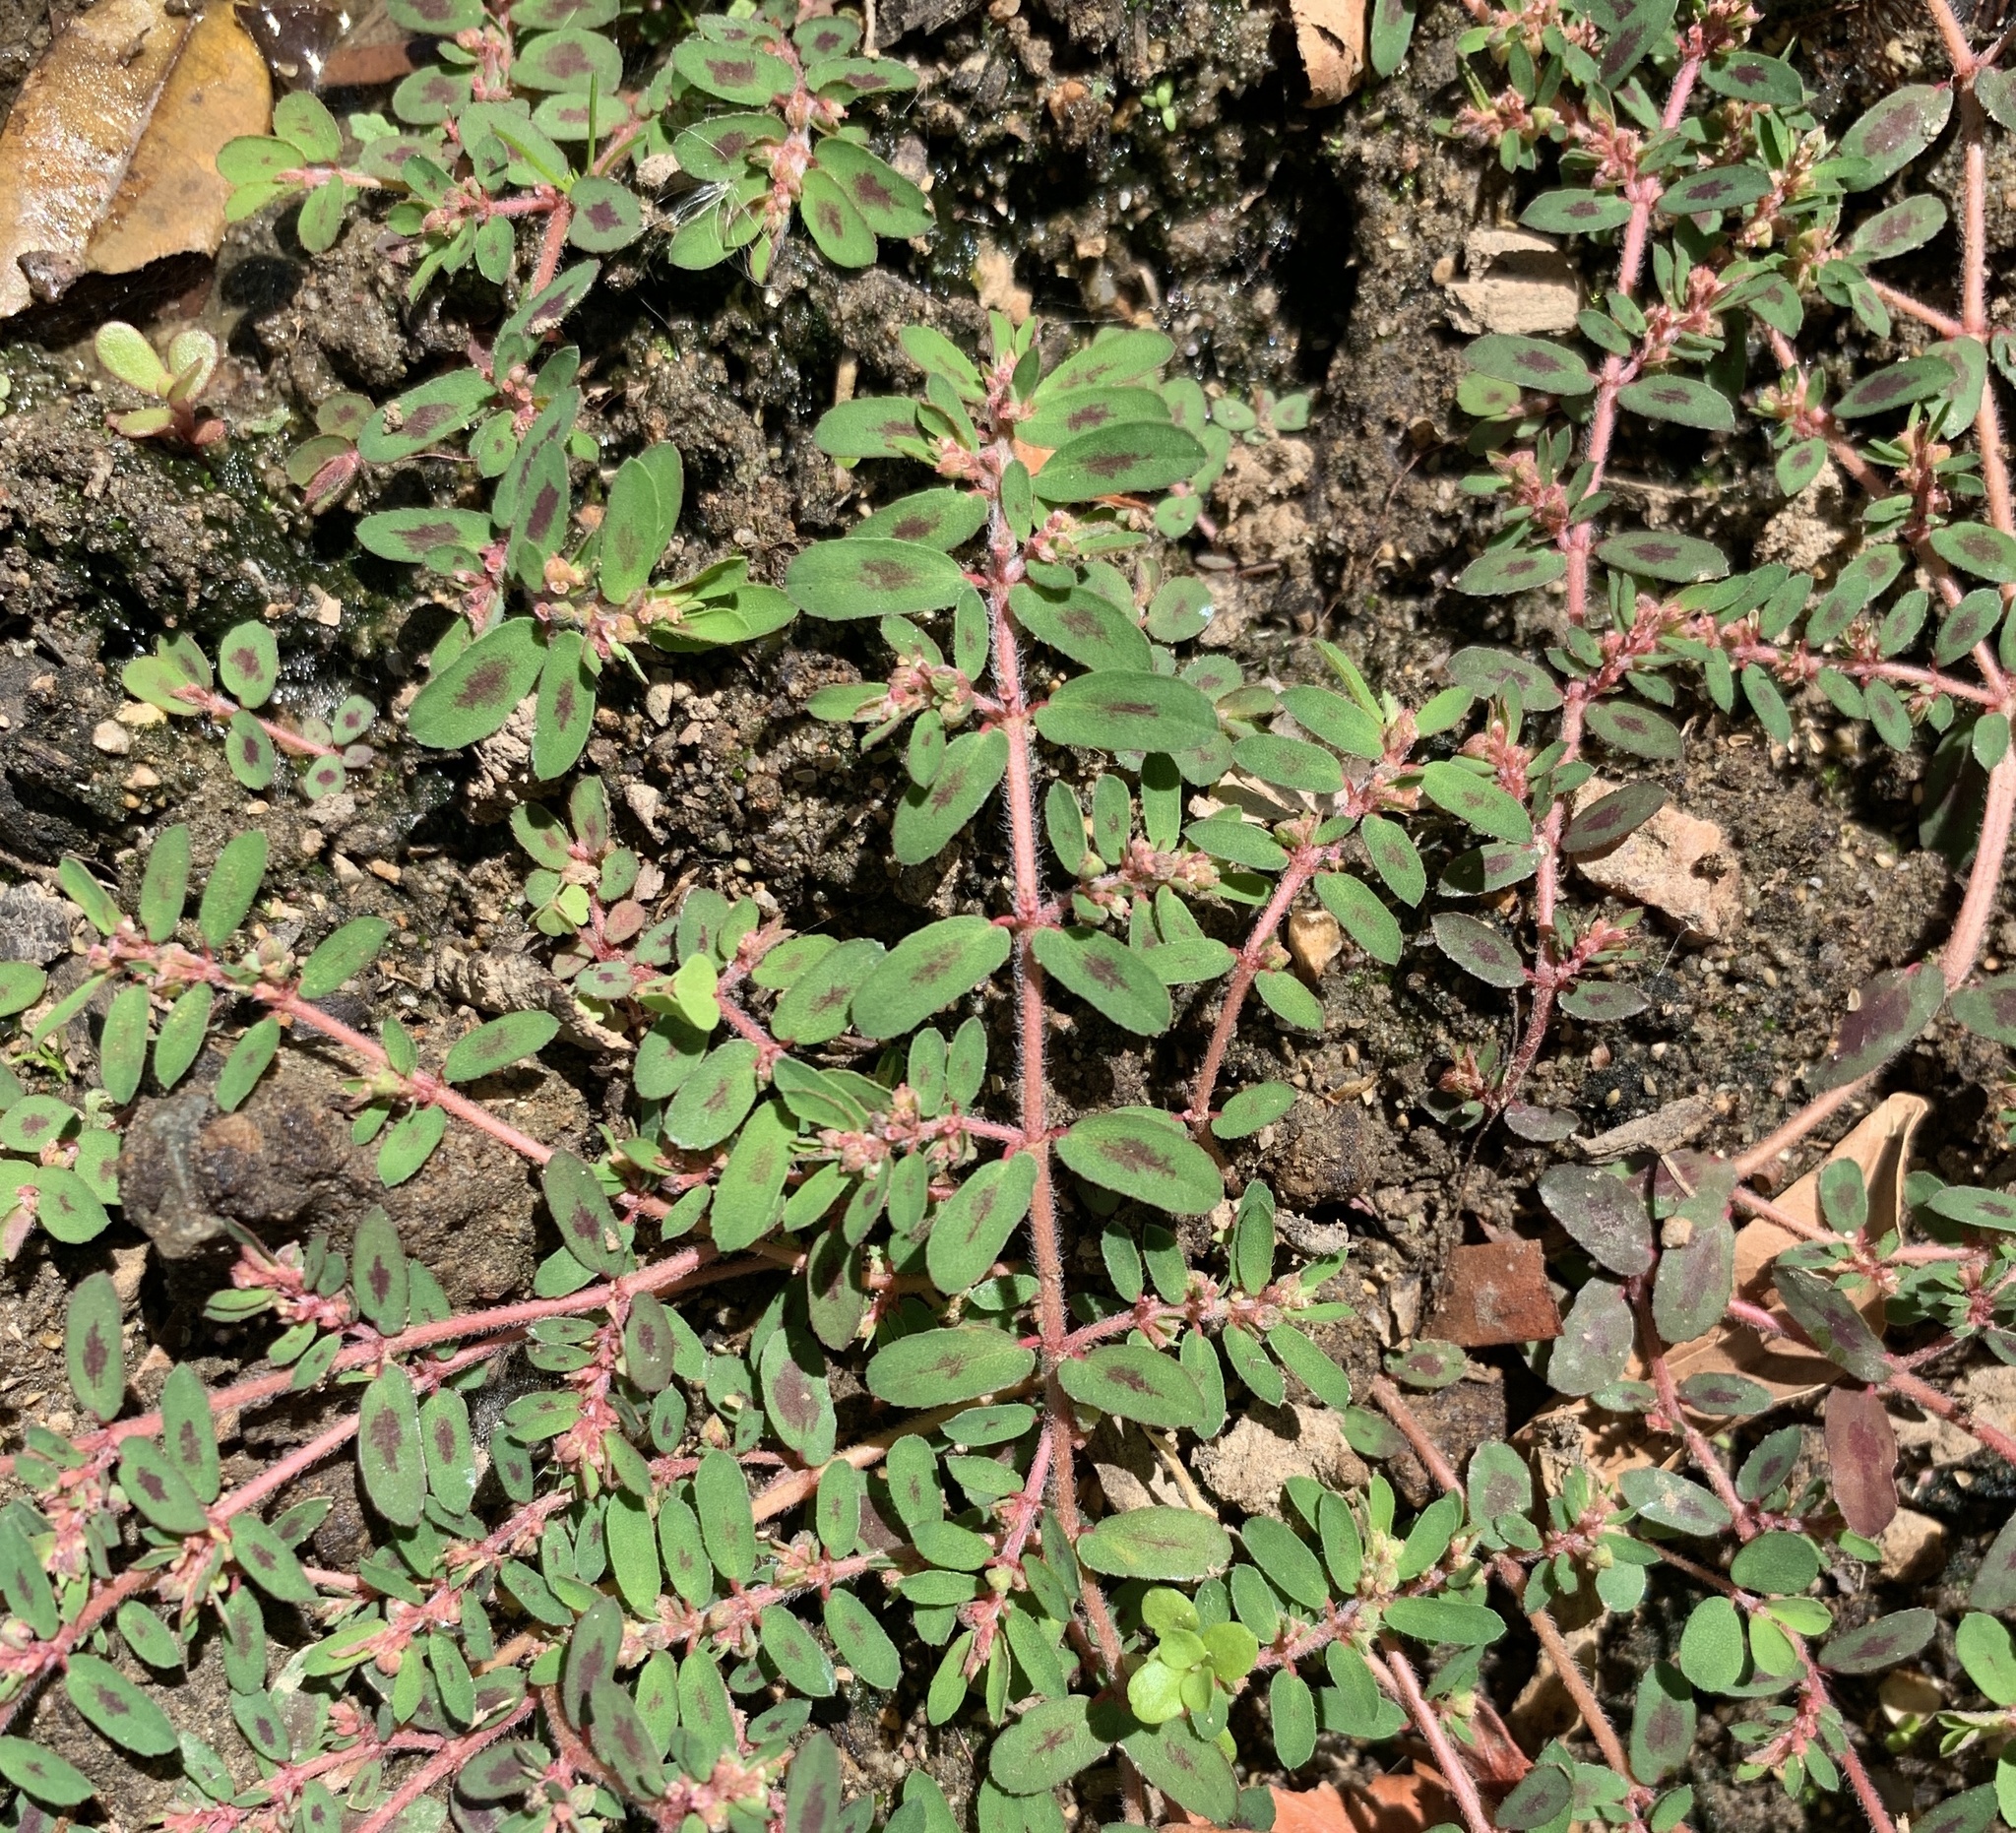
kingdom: Plantae
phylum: Tracheophyta
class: Magnoliopsida
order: Malpighiales
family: Euphorbiaceae
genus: Euphorbia
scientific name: Euphorbia maculata
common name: Spotted spurge
